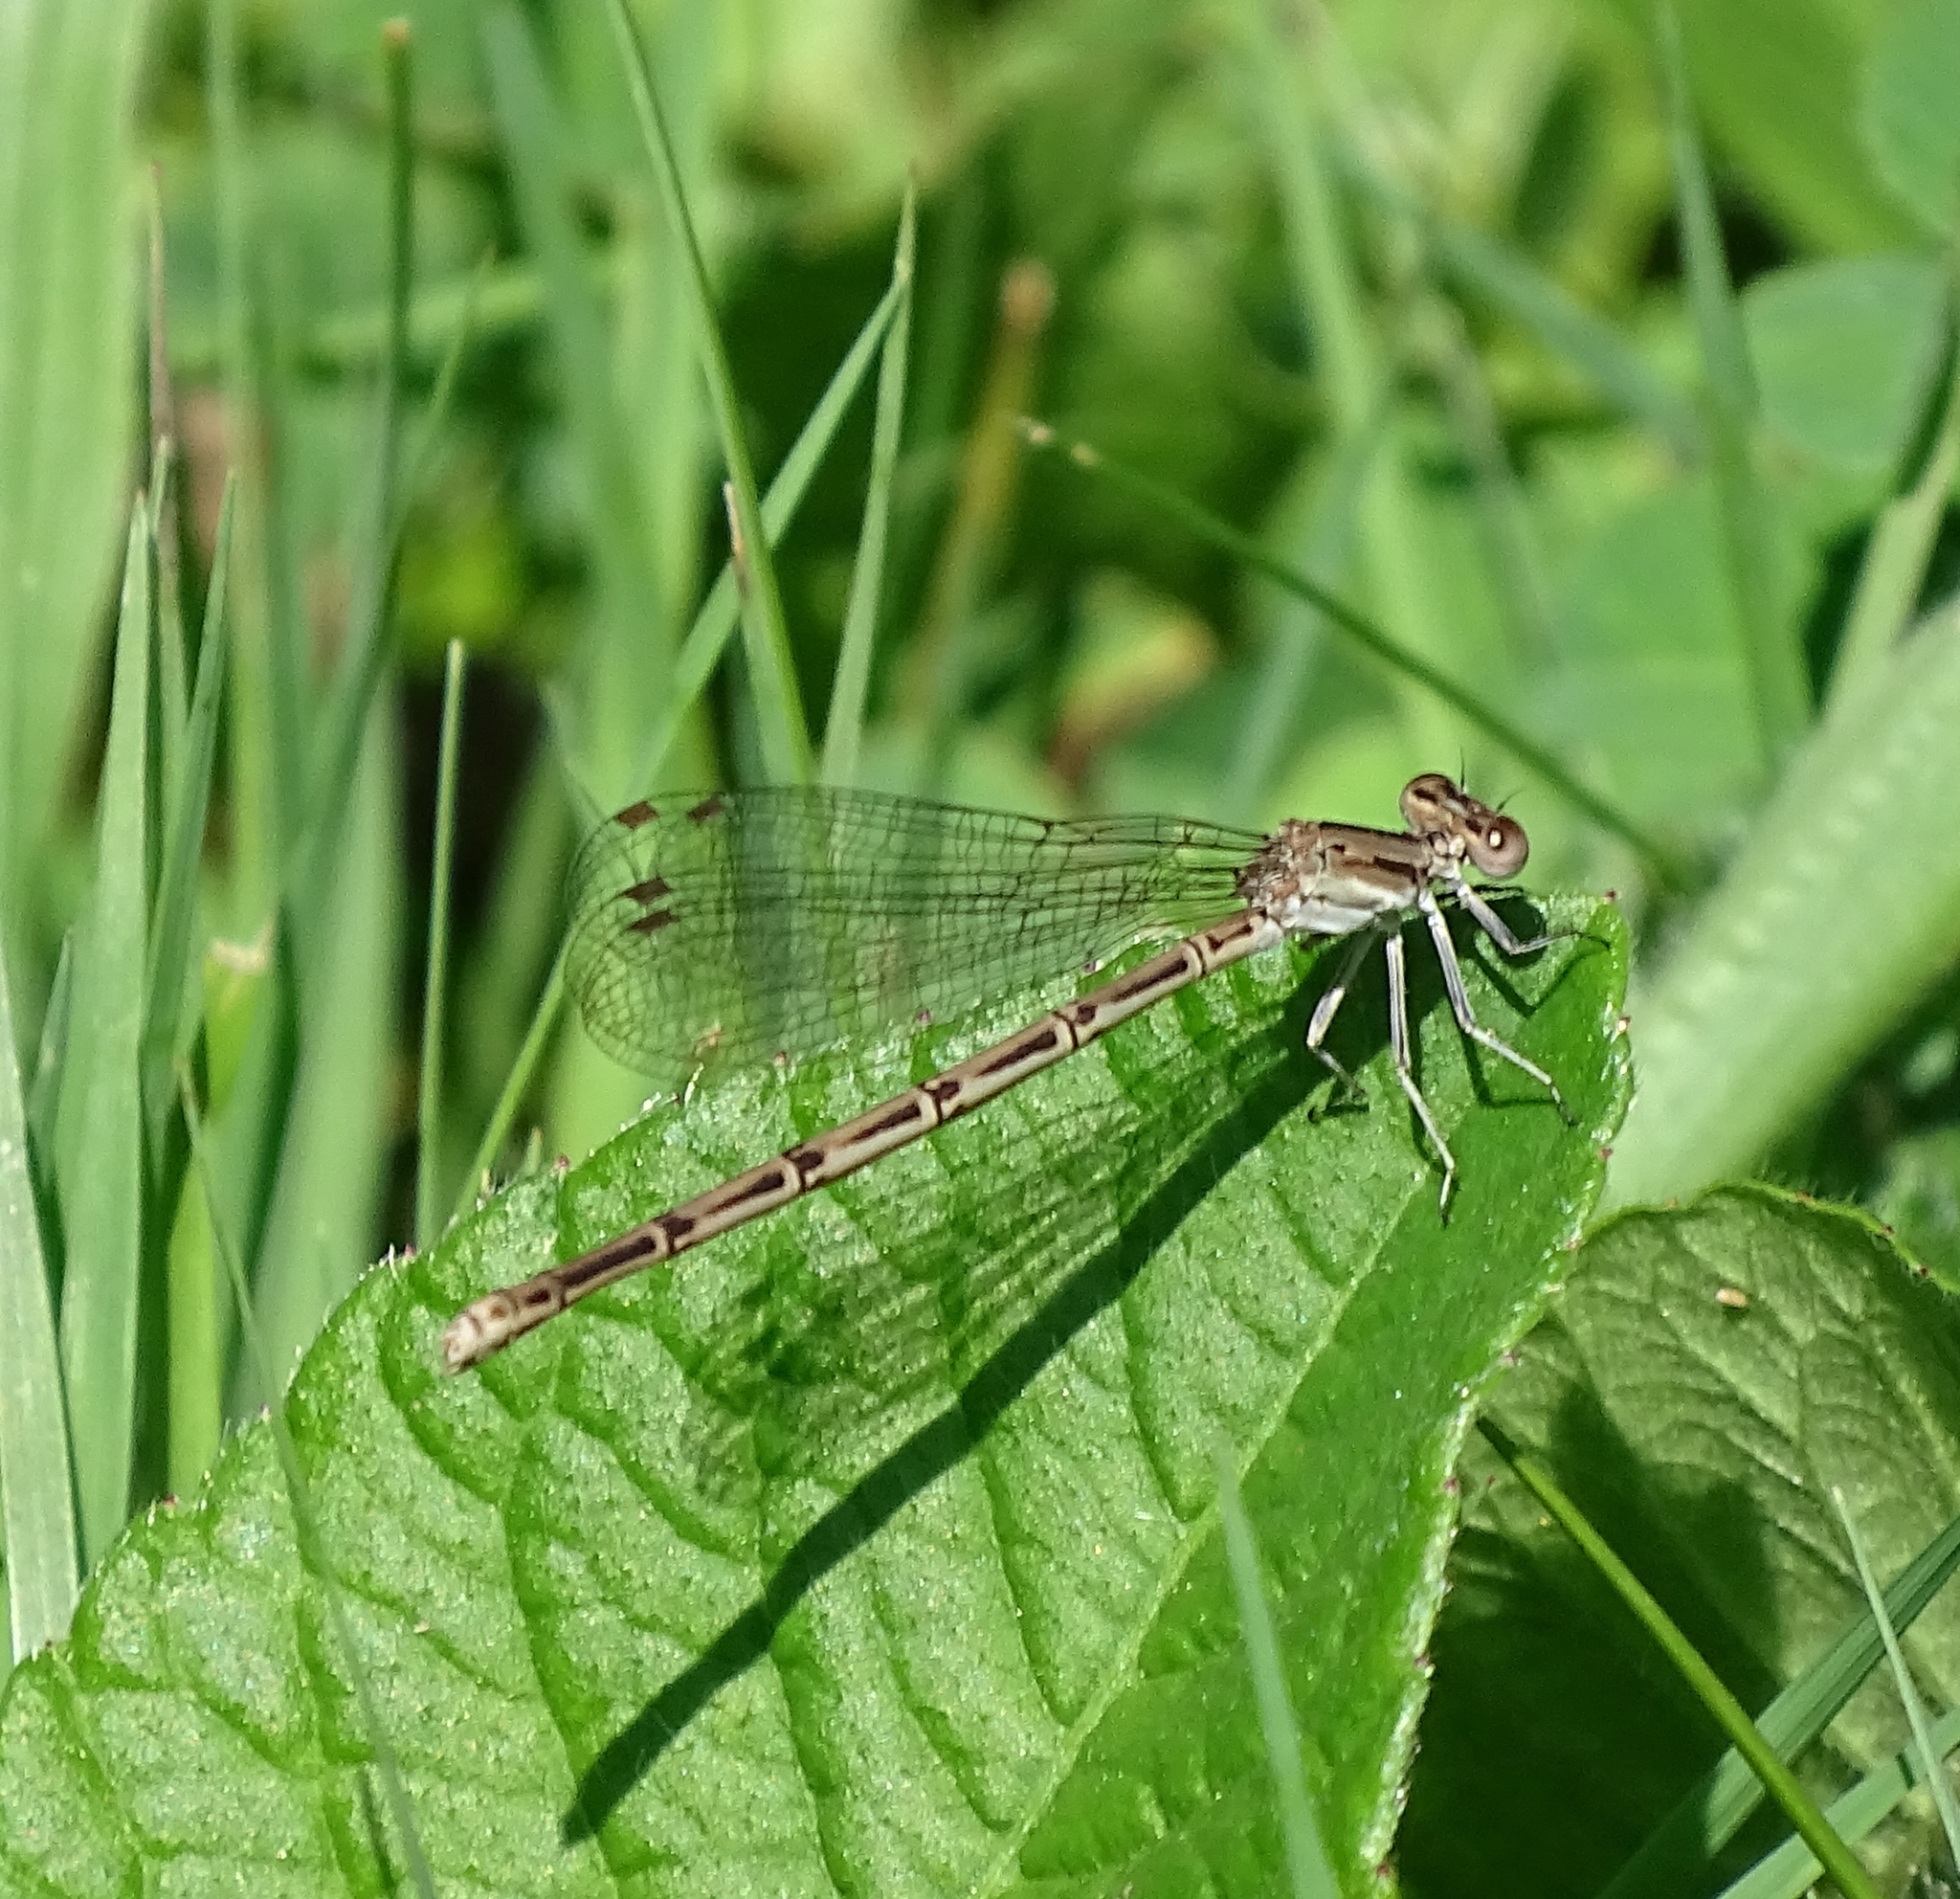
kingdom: Animalia
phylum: Arthropoda
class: Insecta
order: Odonata
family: Coenagrionidae
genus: Argia
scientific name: Argia fumipennis
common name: Variable dancer
